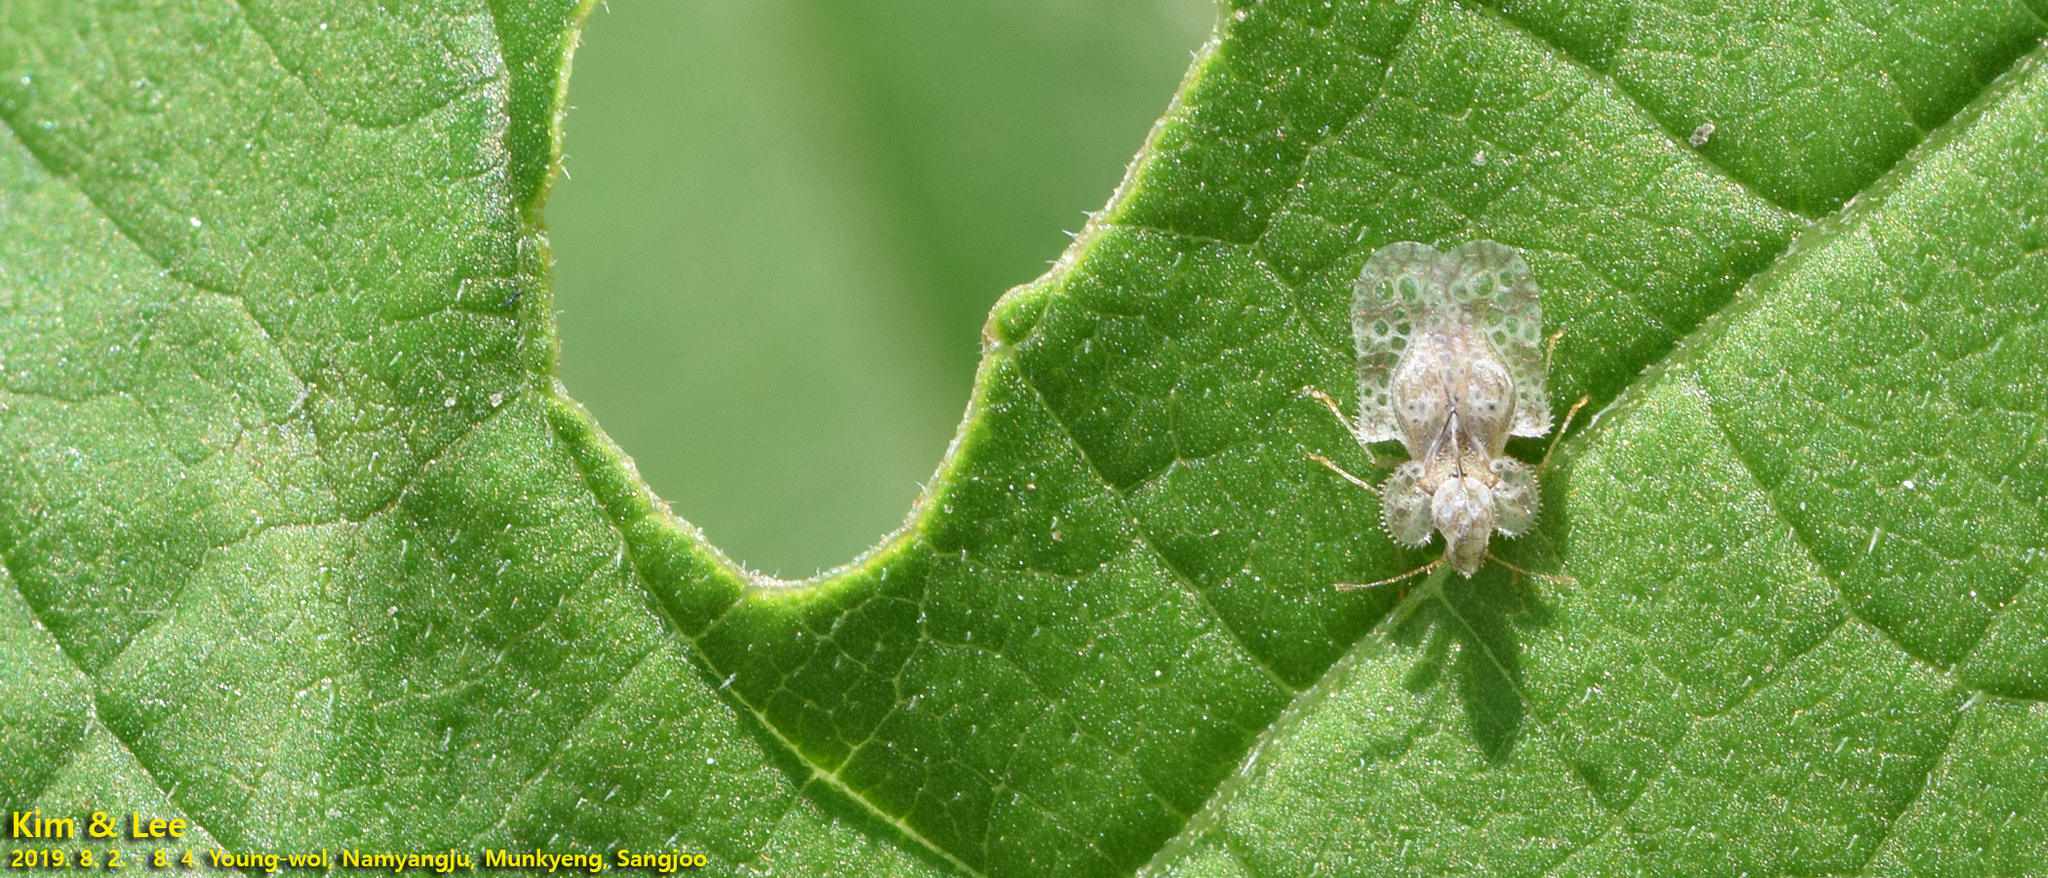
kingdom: Animalia
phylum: Arthropoda
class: Insecta
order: Hemiptera
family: Tingidae
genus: Corythucha
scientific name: Corythucha marmorata
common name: Chrysanthemum lace bug
